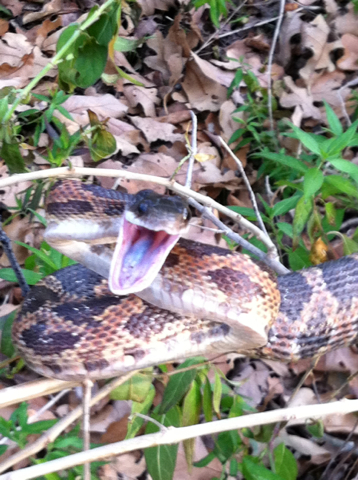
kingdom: Animalia
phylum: Chordata
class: Squamata
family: Colubridae
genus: Pantherophis
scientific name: Pantherophis obsoletus
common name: Black rat snake
